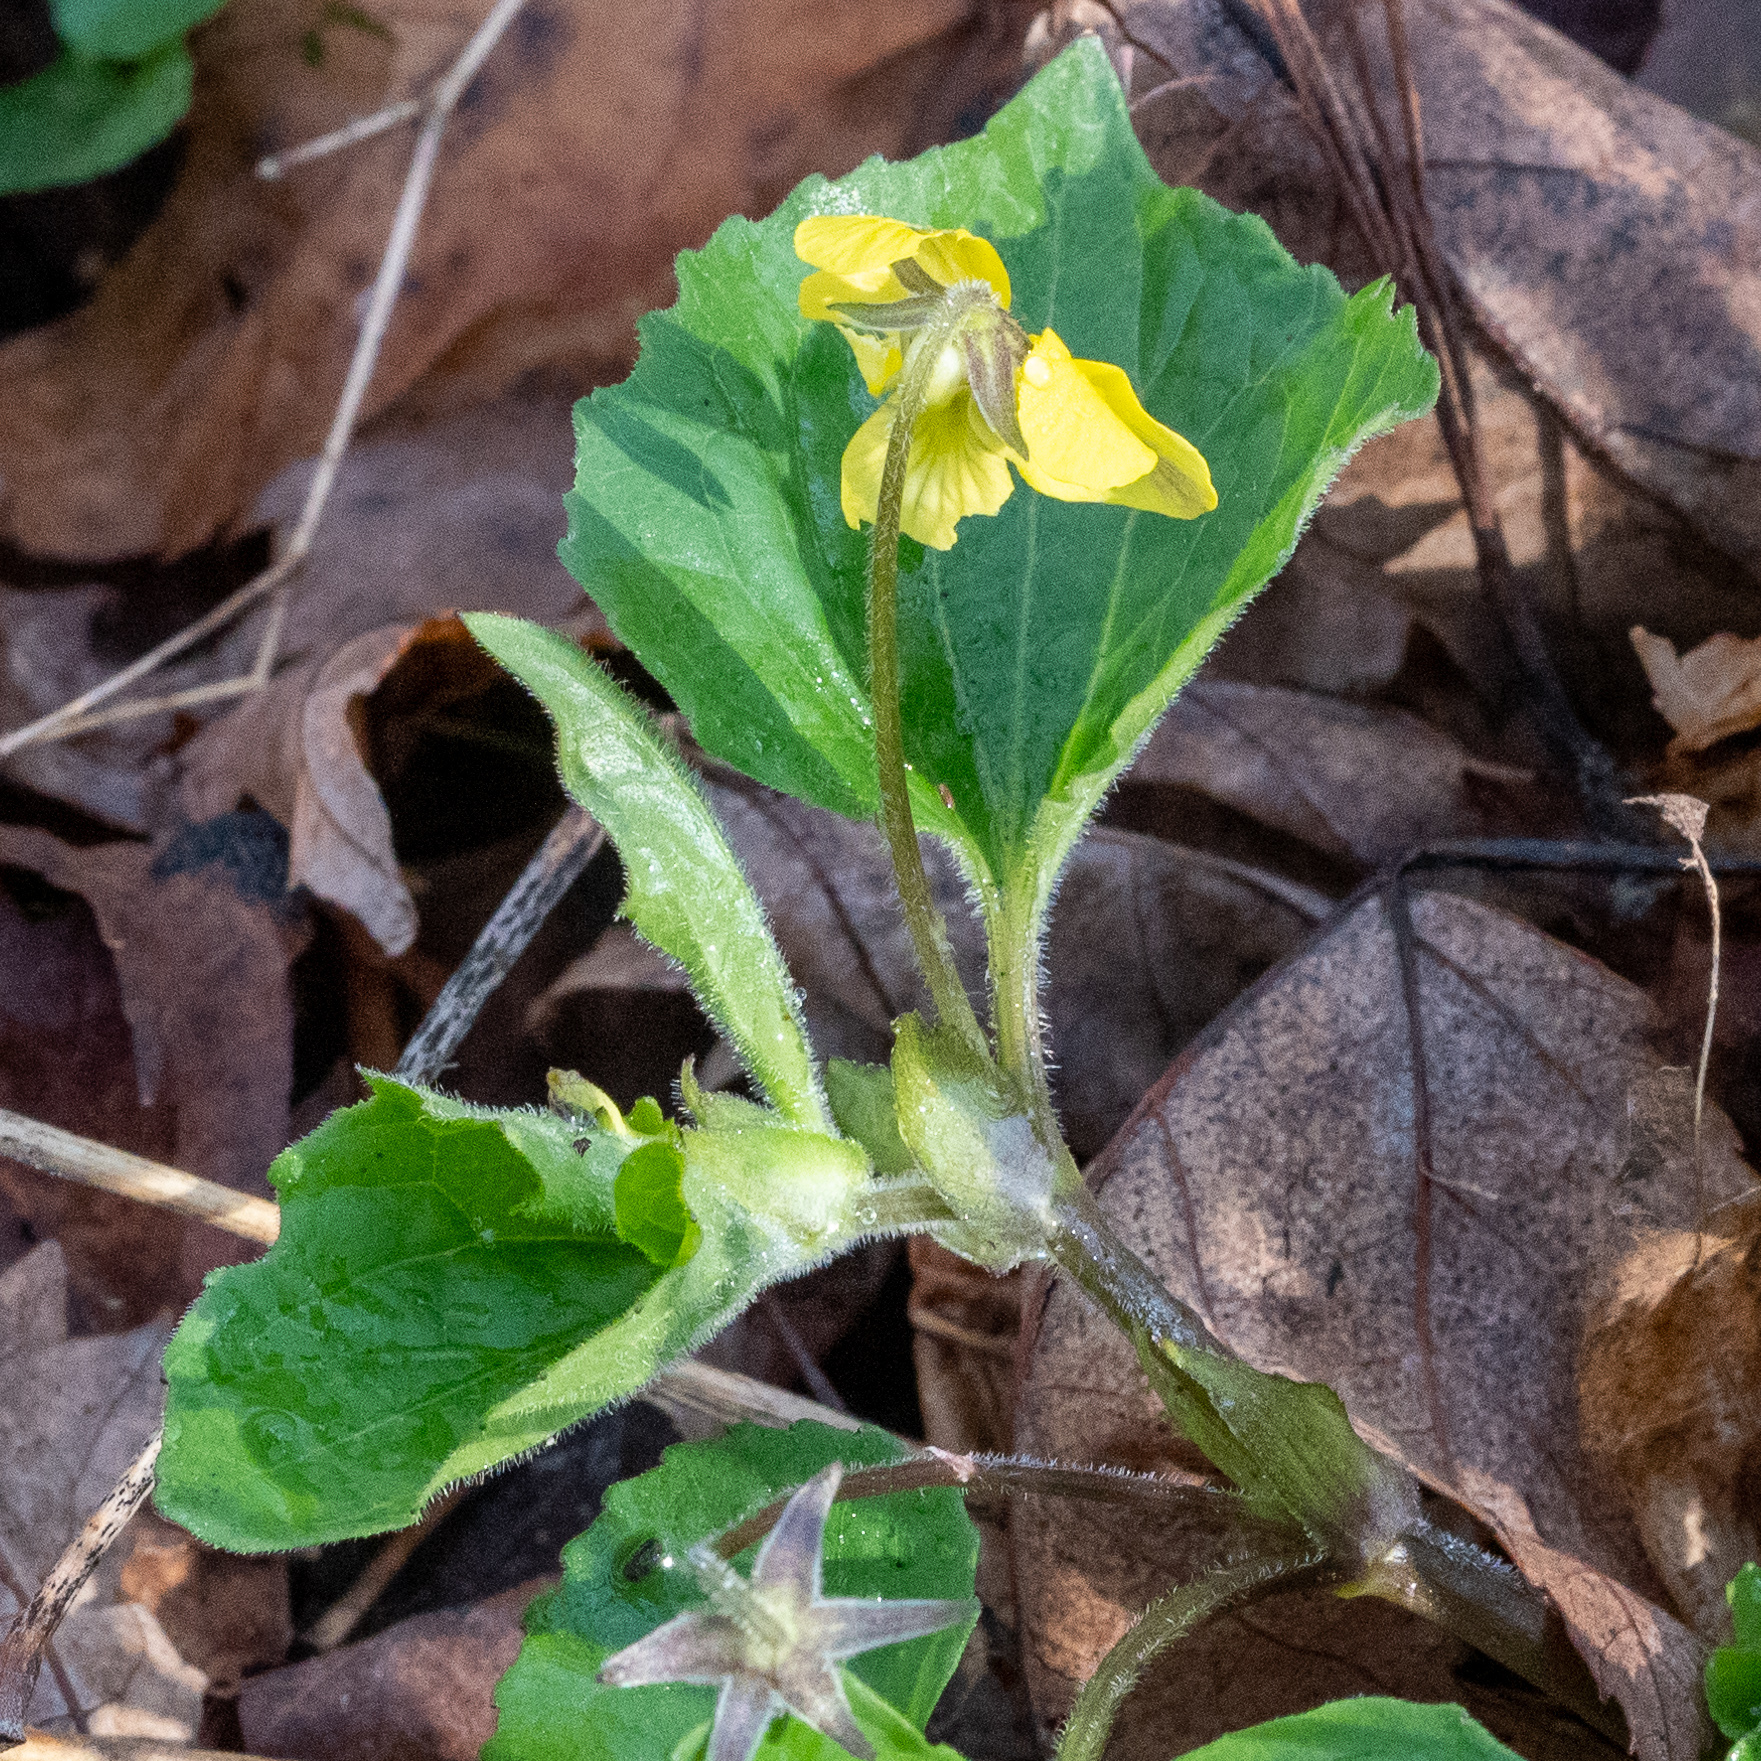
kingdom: Plantae
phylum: Tracheophyta
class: Magnoliopsida
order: Malpighiales
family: Violaceae
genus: Viola
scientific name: Viola eriocarpa
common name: Smooth yellow violet
